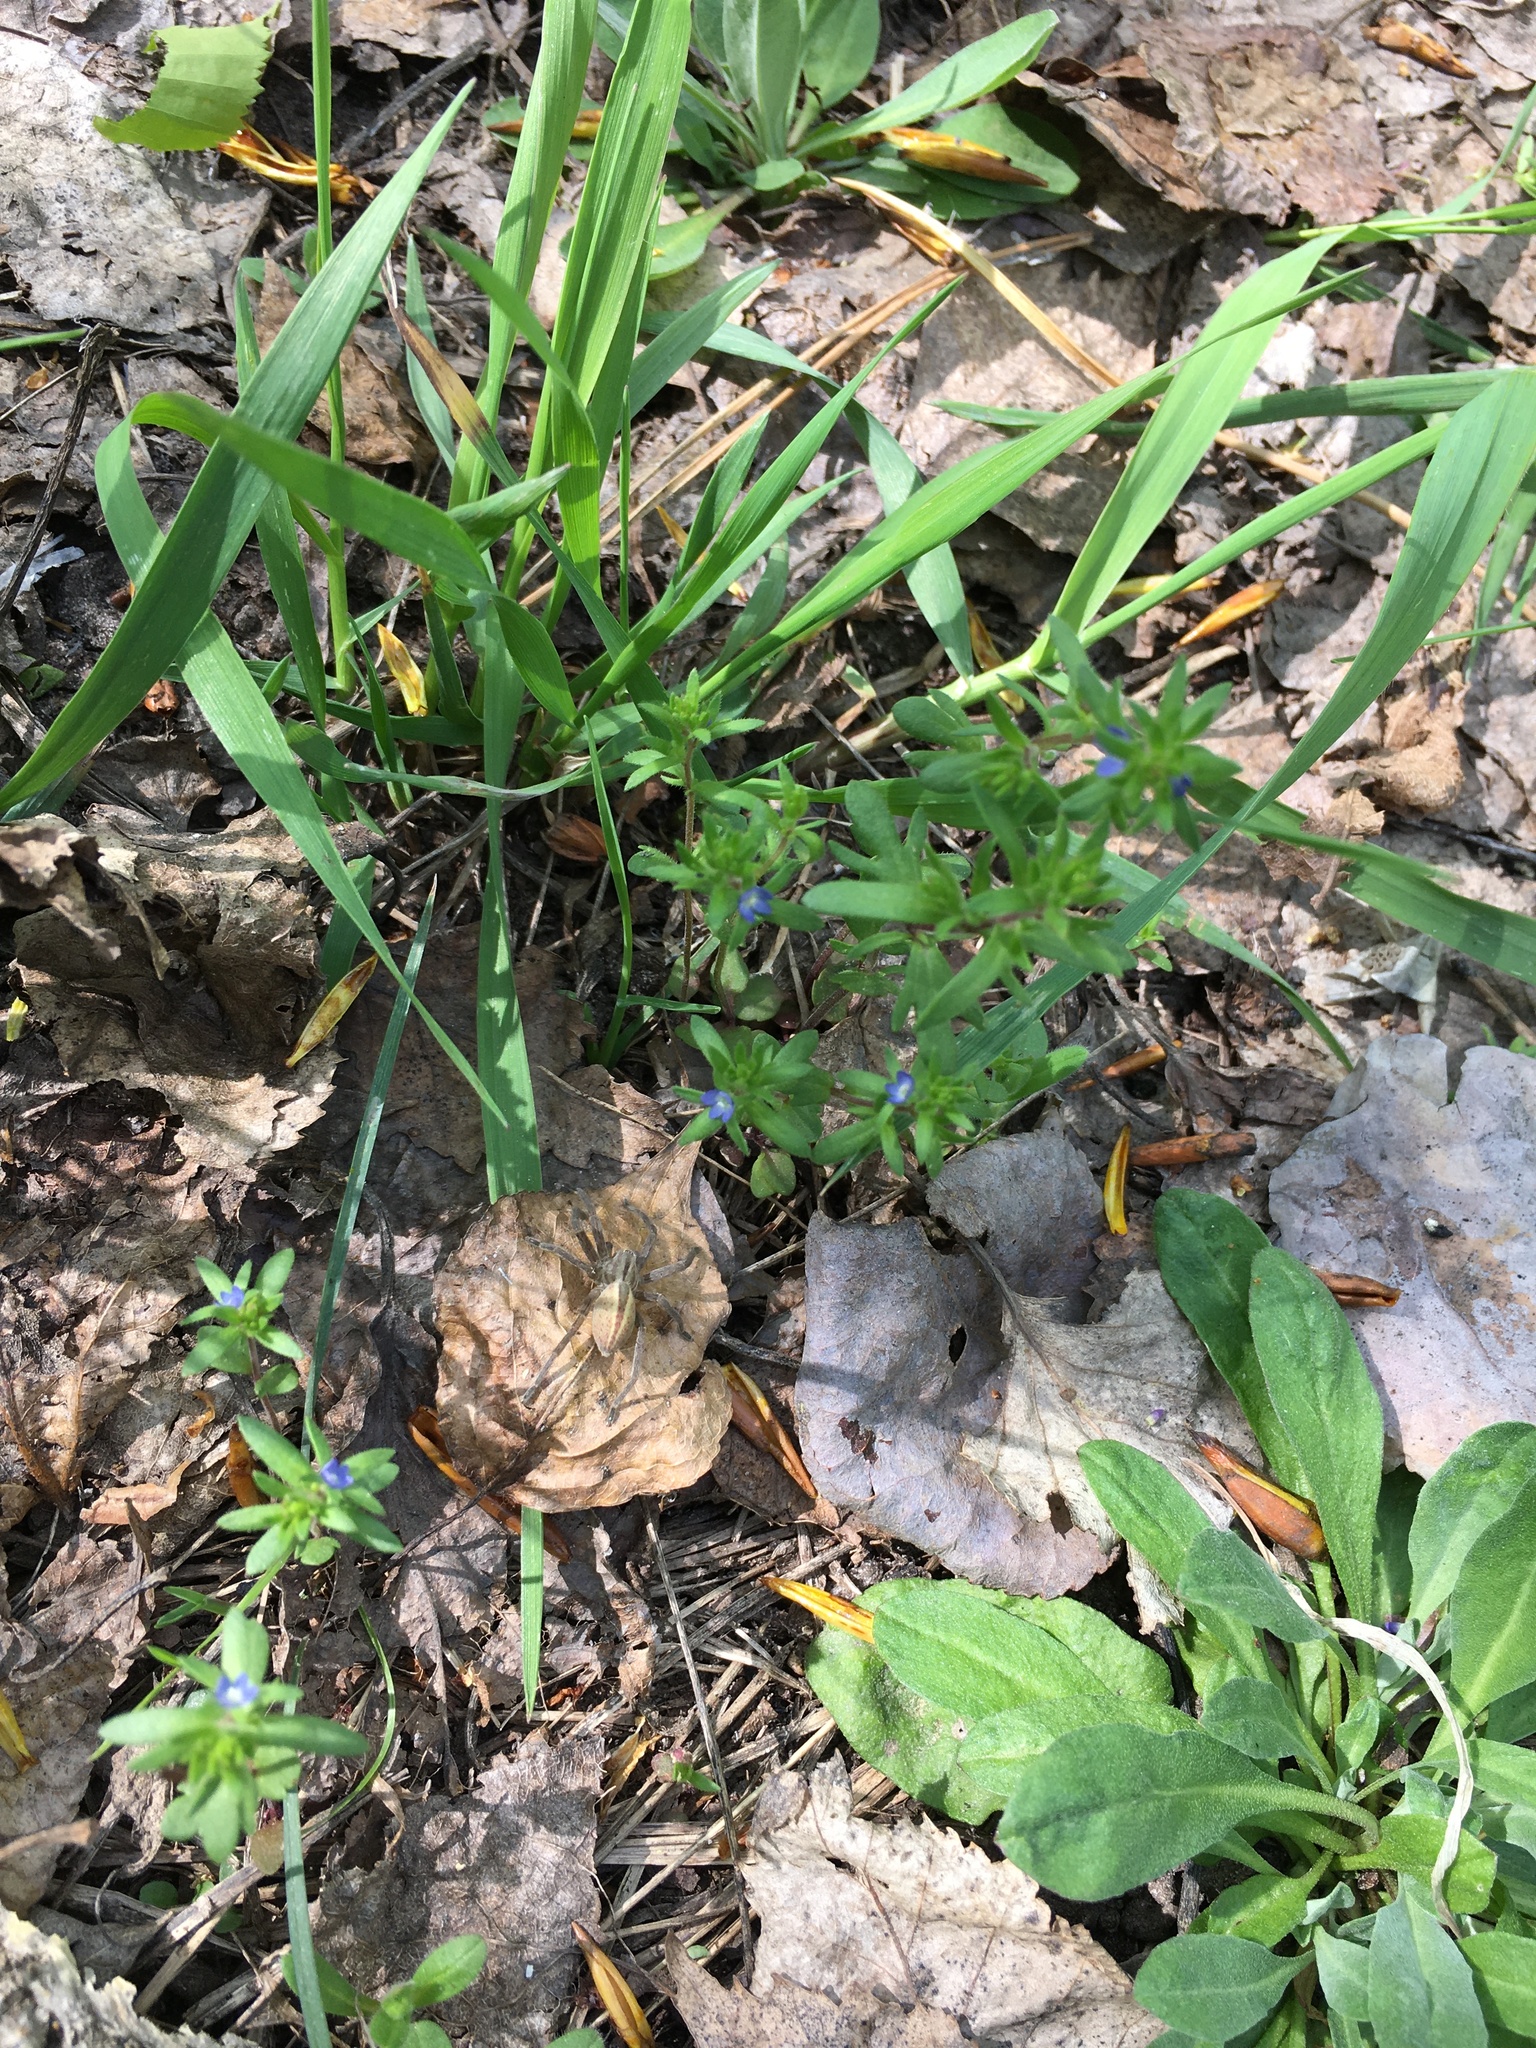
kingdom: Plantae
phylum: Tracheophyta
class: Magnoliopsida
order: Lamiales
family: Plantaginaceae
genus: Veronica
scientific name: Veronica verna
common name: Spring speedwell
